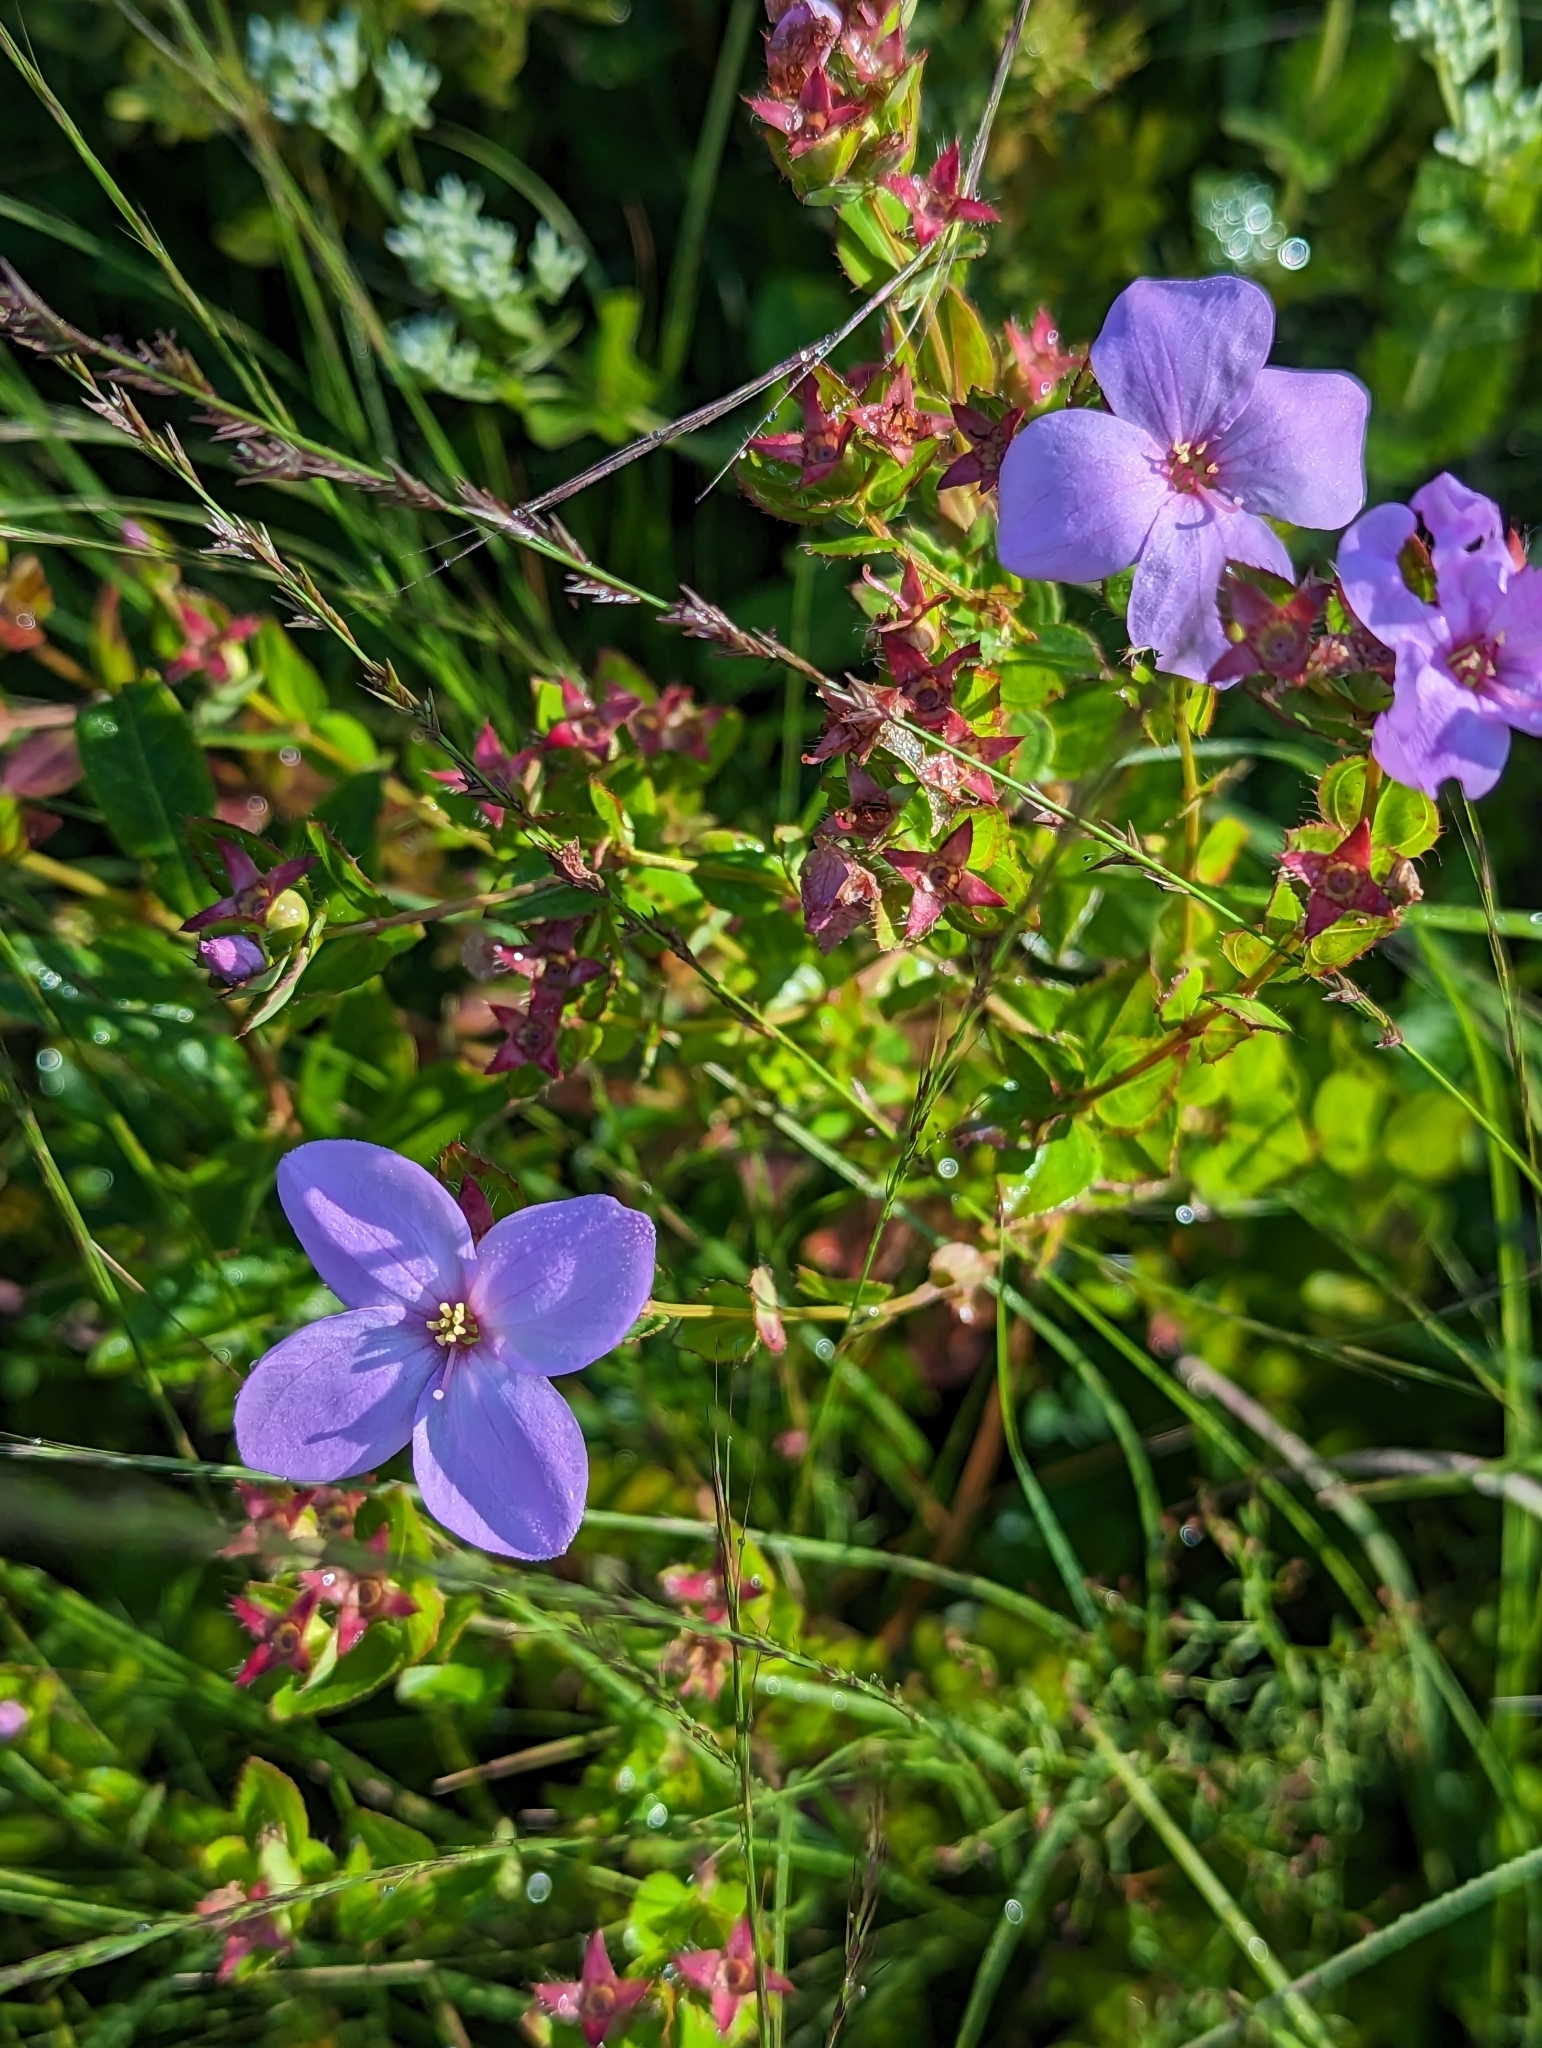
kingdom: Plantae
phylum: Tracheophyta
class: Magnoliopsida
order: Myrtales
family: Melastomataceae
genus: Rhexia
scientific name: Rhexia petiolata
